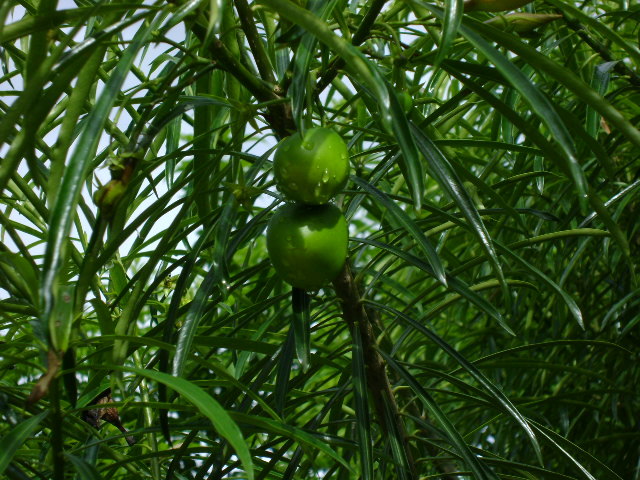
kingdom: Plantae
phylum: Tracheophyta
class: Magnoliopsida
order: Gentianales
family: Apocynaceae
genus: Cascabela
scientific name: Cascabela thevetia
